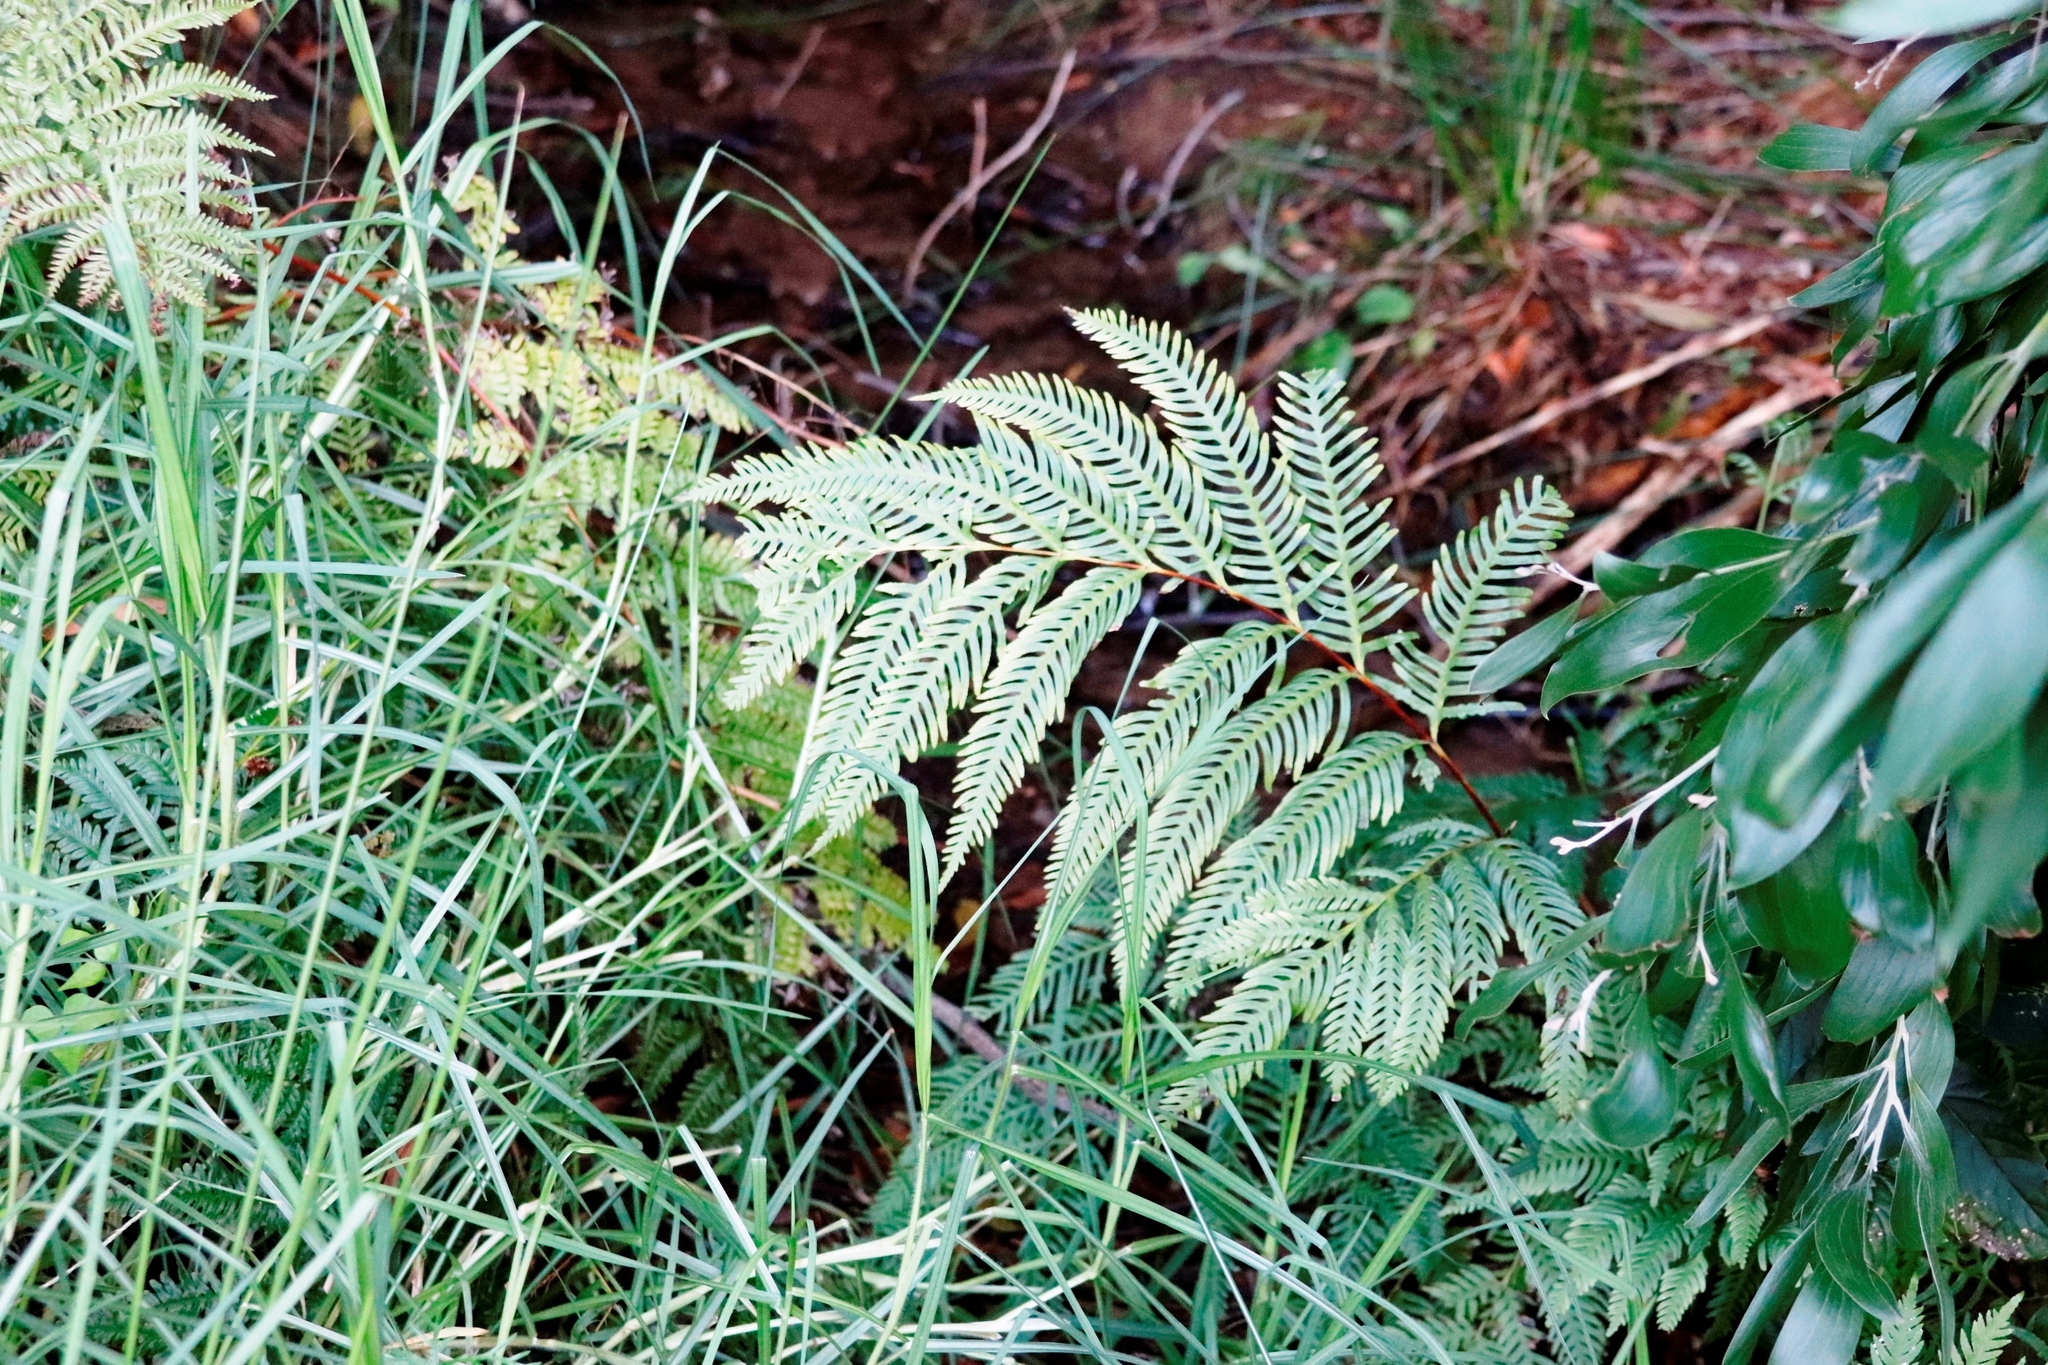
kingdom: Plantae
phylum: Tracheophyta
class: Polypodiopsida
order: Polypodiales
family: Pteridaceae
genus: Pteris
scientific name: Pteris dentata
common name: Toothed brake
